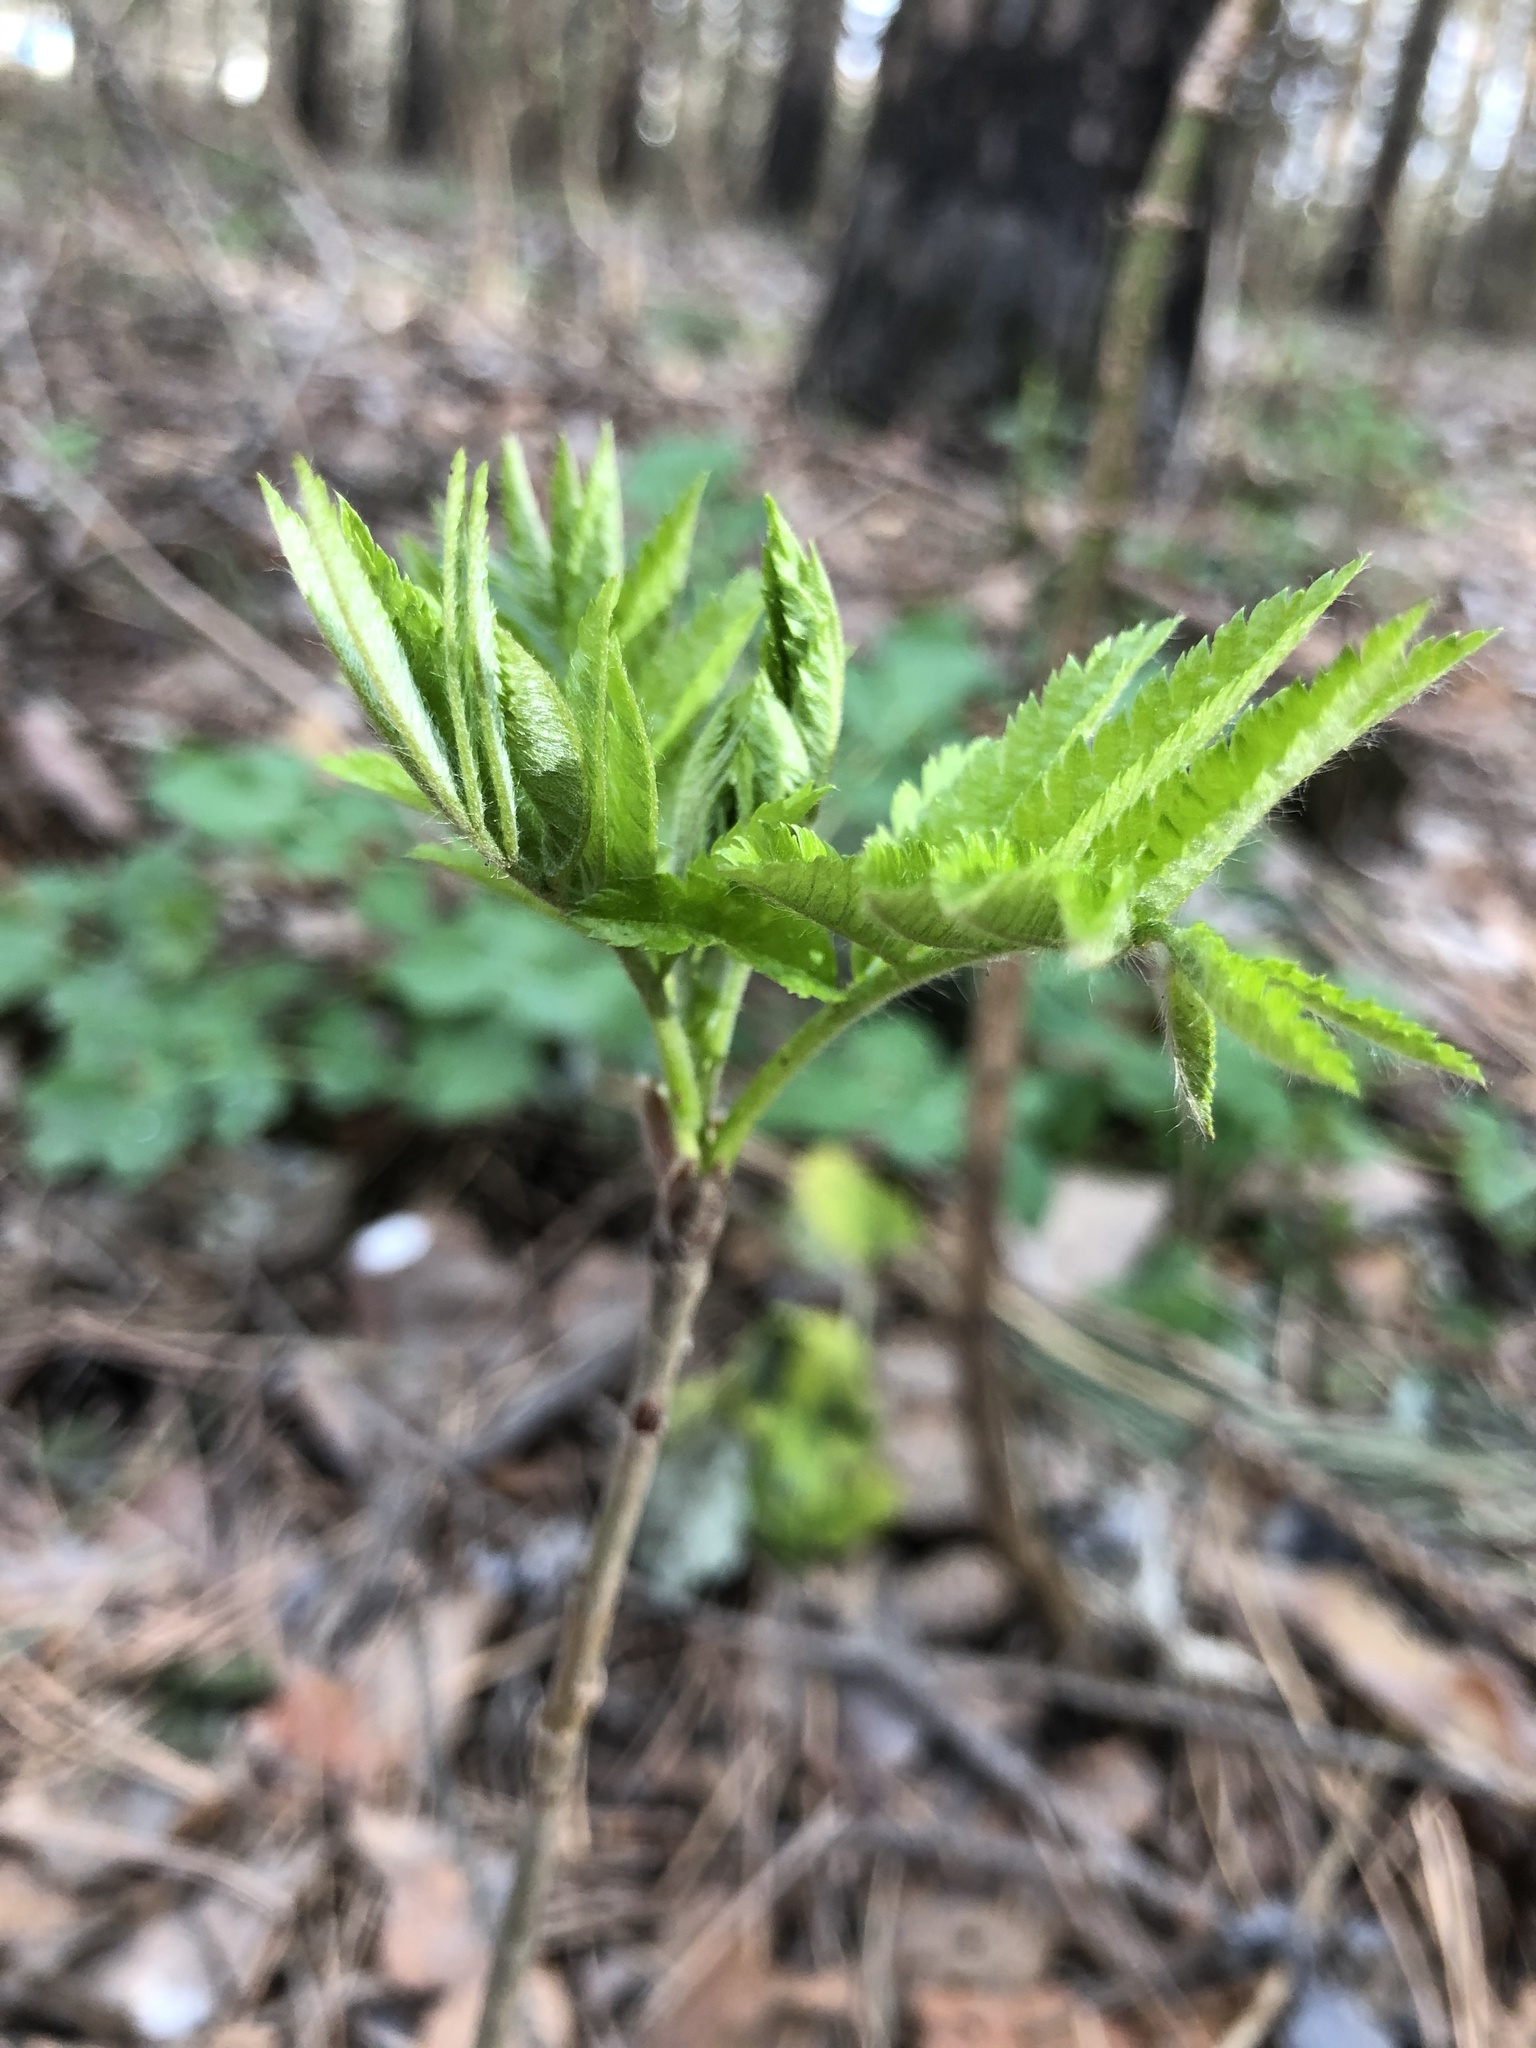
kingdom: Plantae
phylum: Tracheophyta
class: Magnoliopsida
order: Rosales
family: Rosaceae
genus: Sorbus
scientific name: Sorbus aucuparia
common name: Rowan
